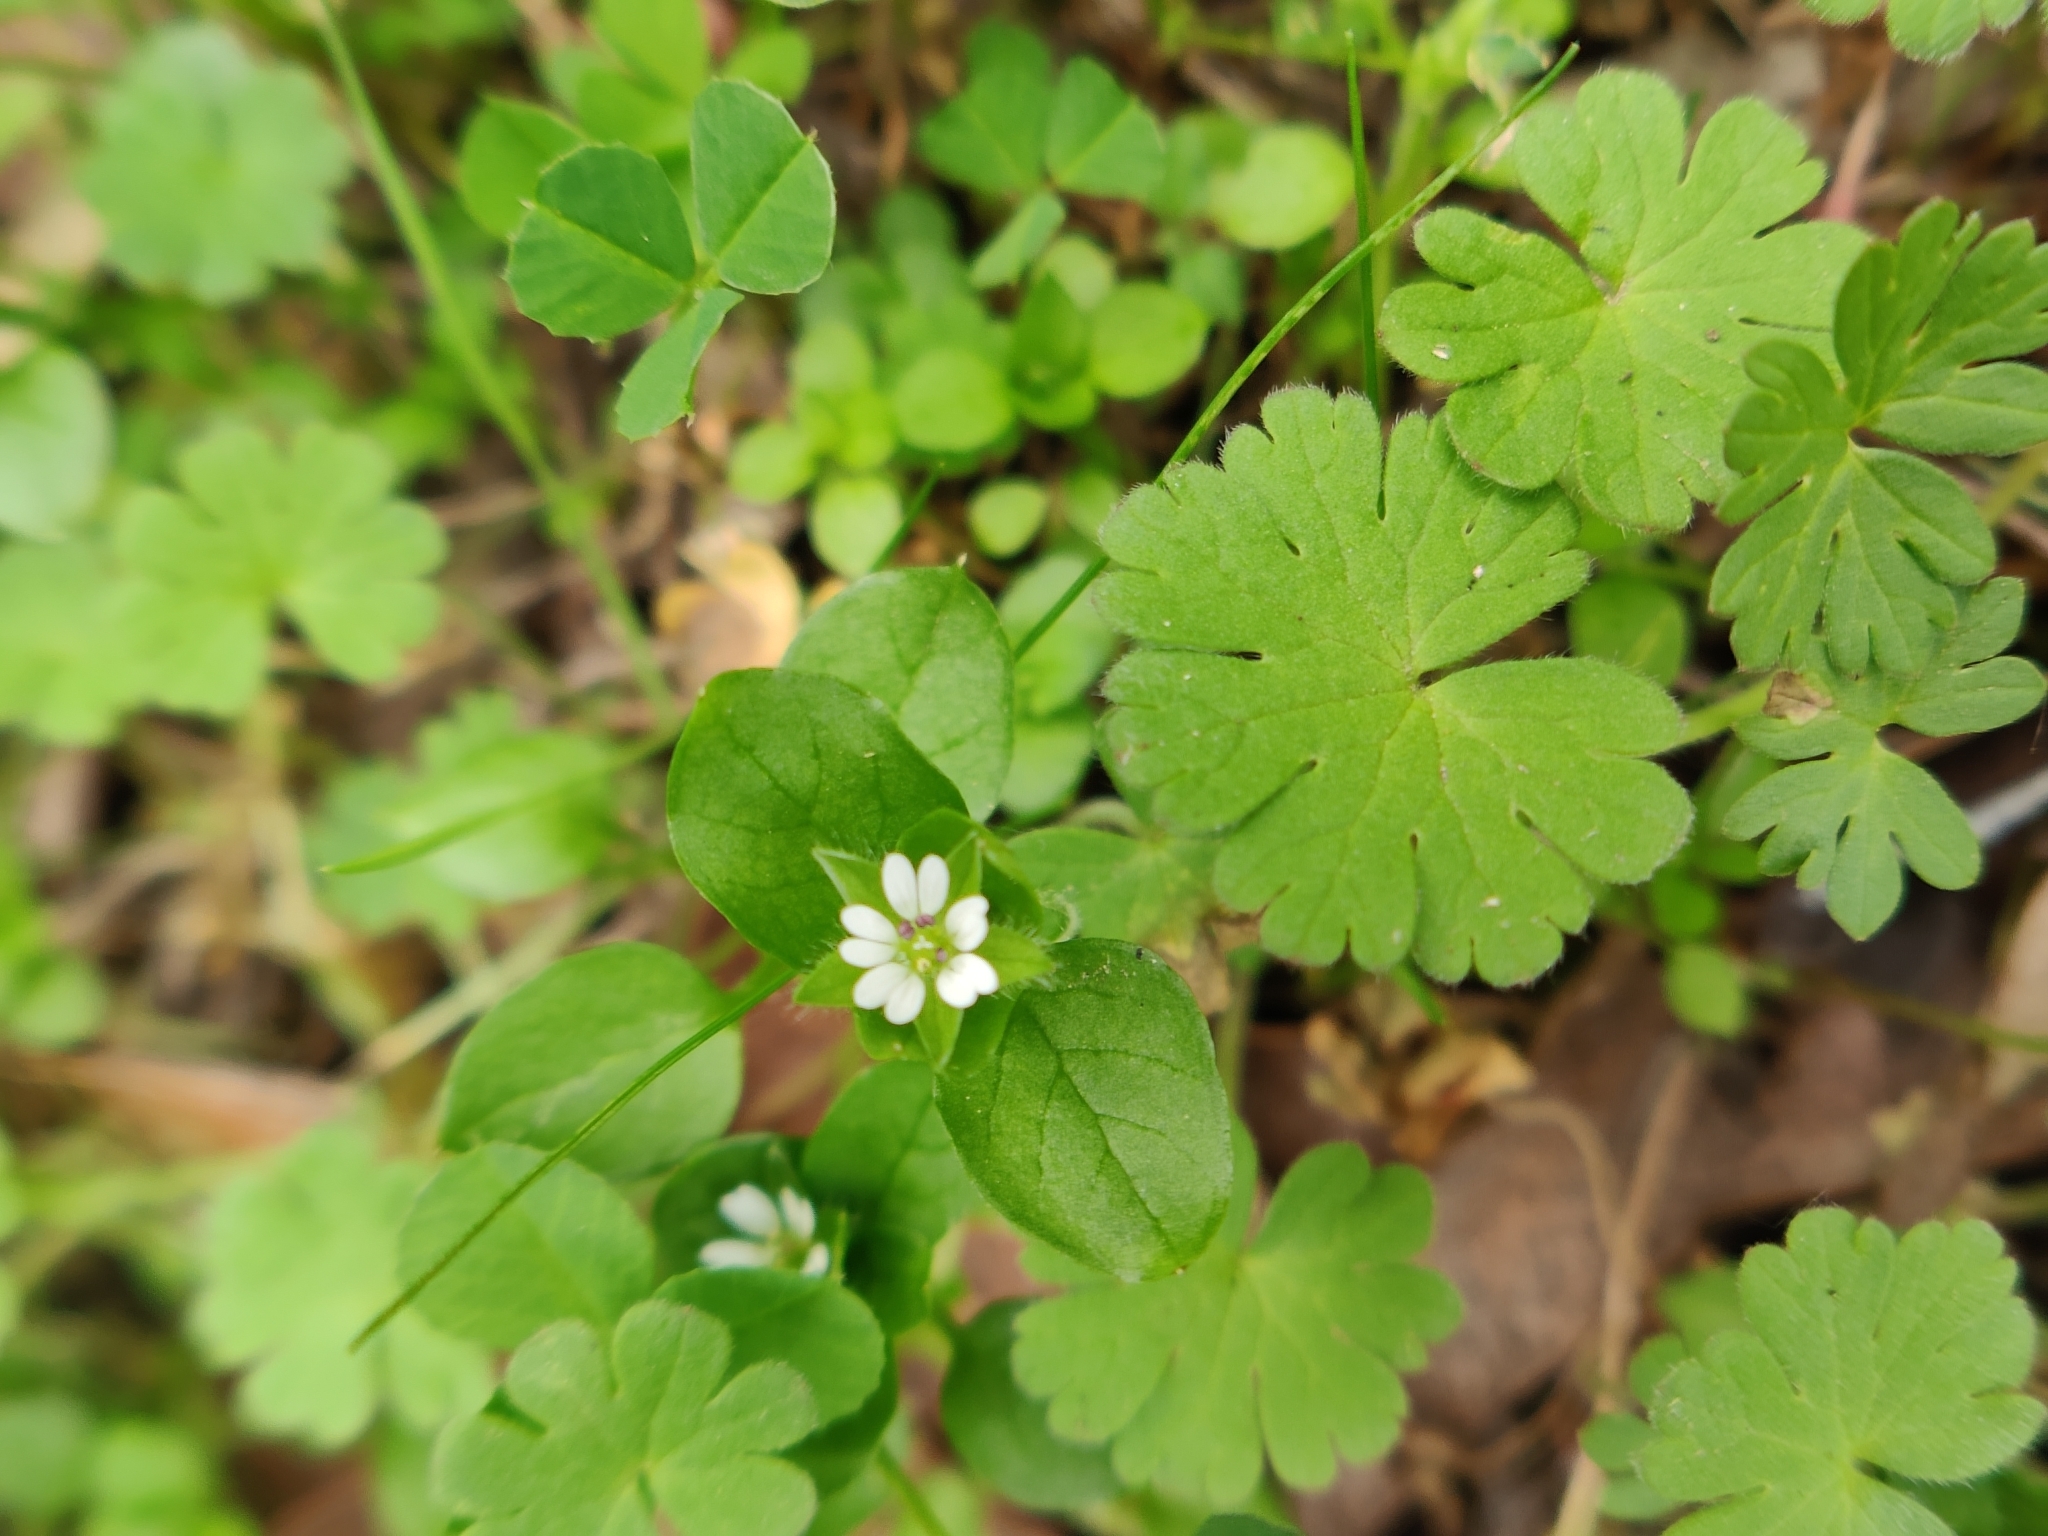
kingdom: Plantae
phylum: Tracheophyta
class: Magnoliopsida
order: Caryophyllales
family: Caryophyllaceae
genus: Stellaria
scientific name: Stellaria media
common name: Common chickweed
